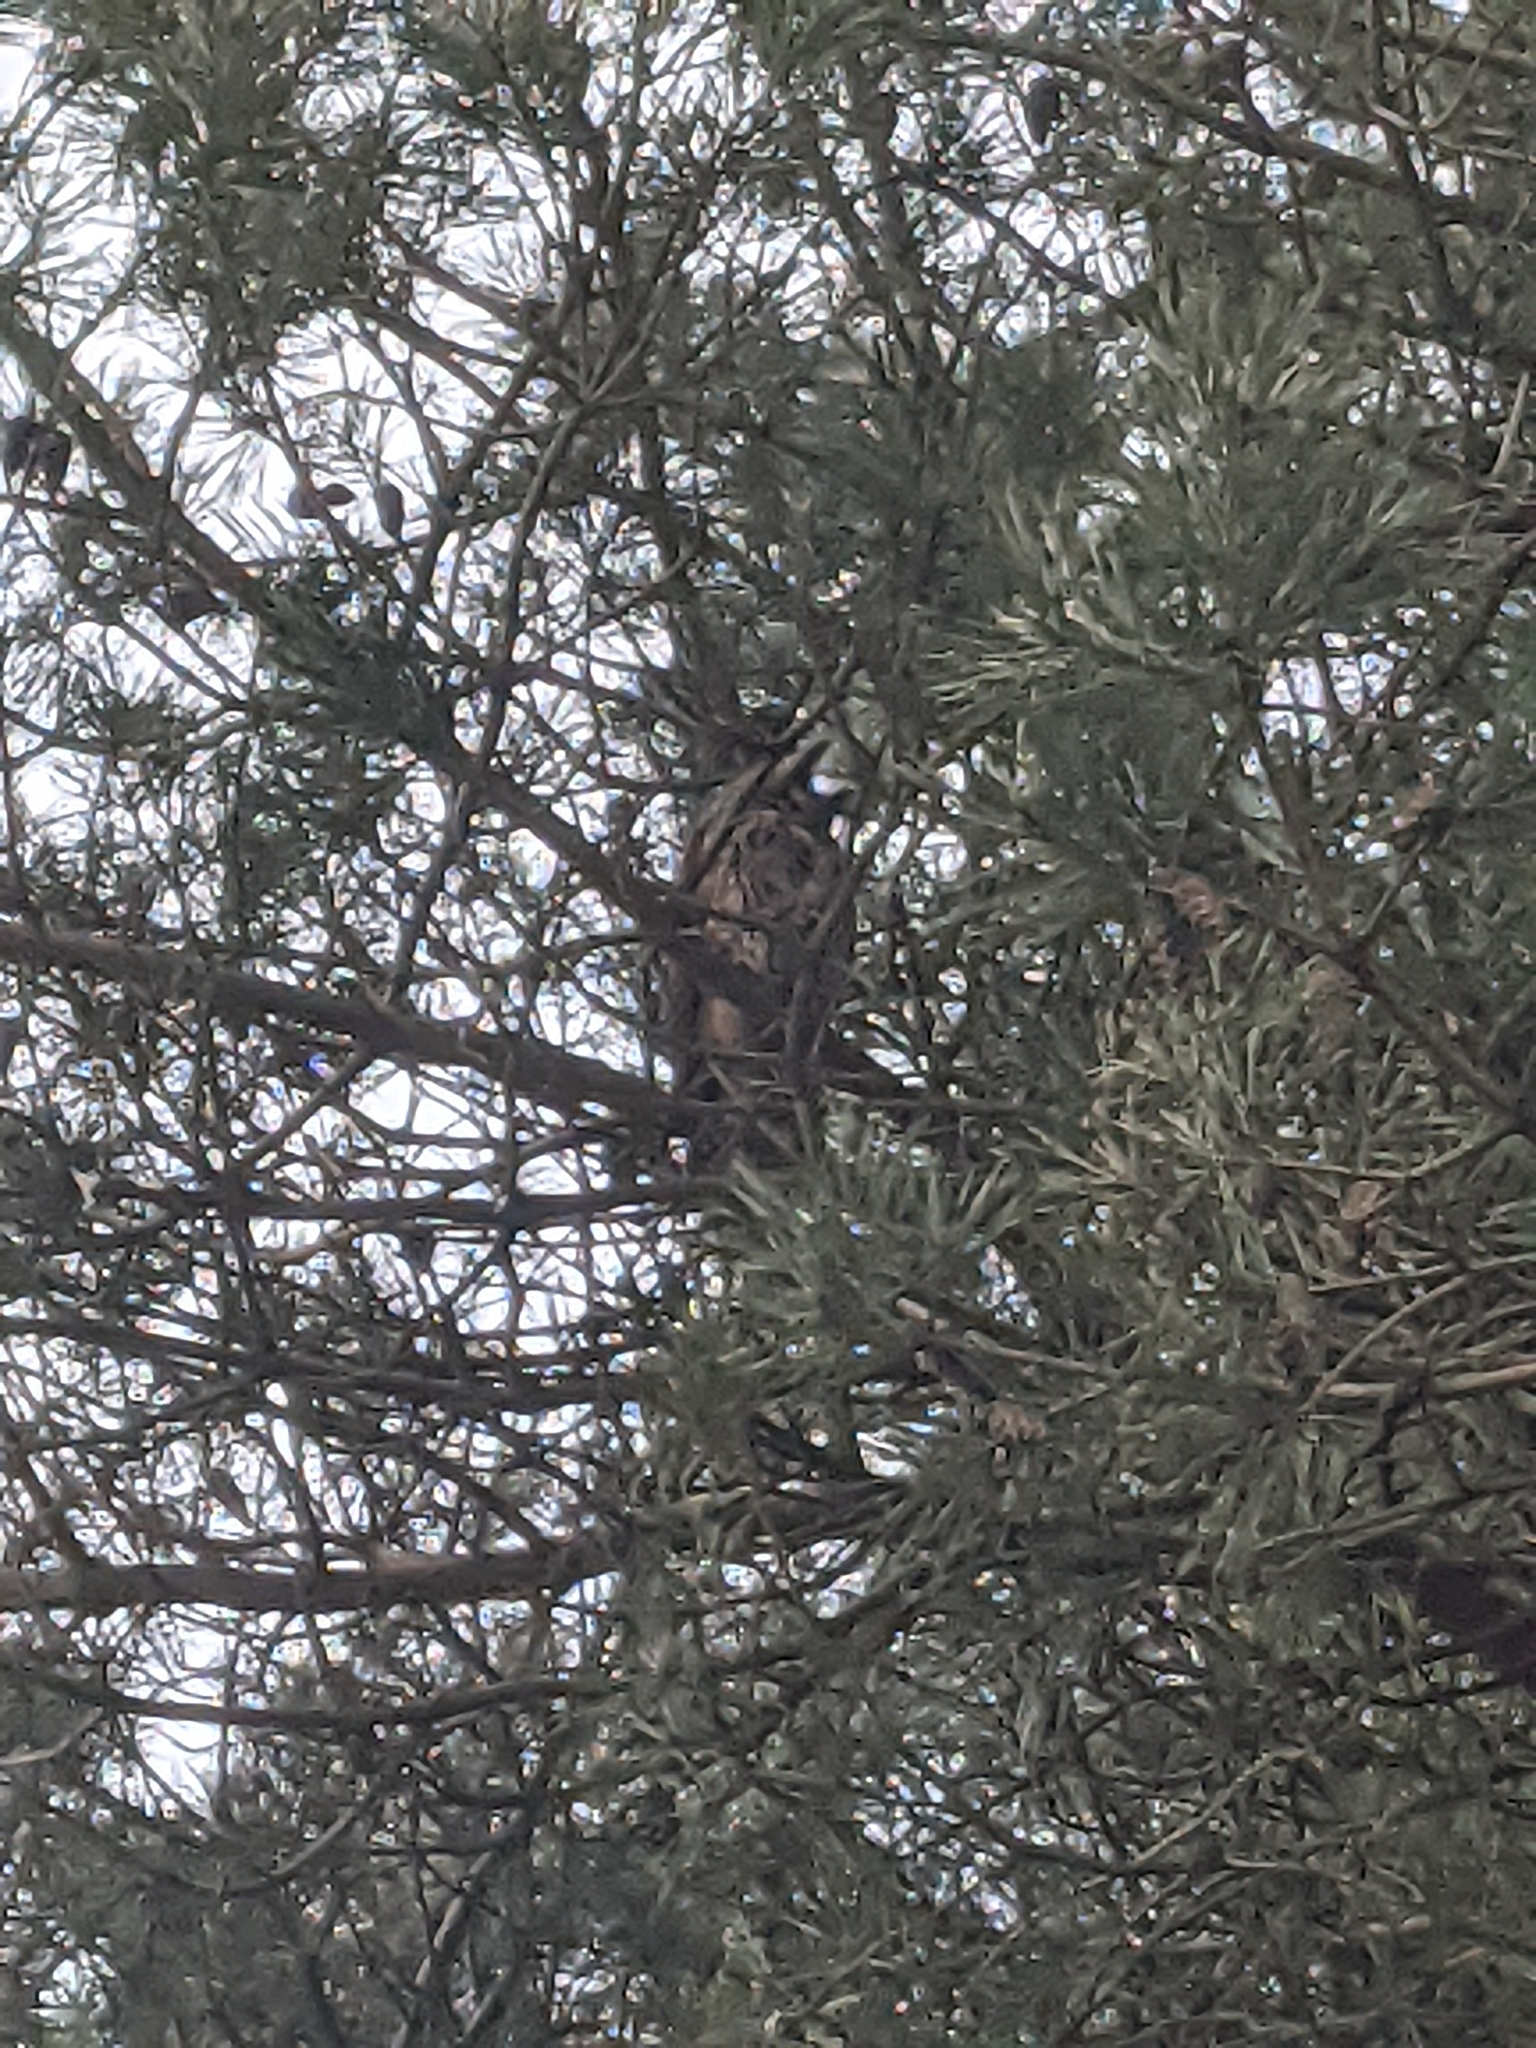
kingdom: Animalia
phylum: Chordata
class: Aves
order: Strigiformes
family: Strigidae
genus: Asio
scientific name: Asio otus
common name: Long-eared owl
